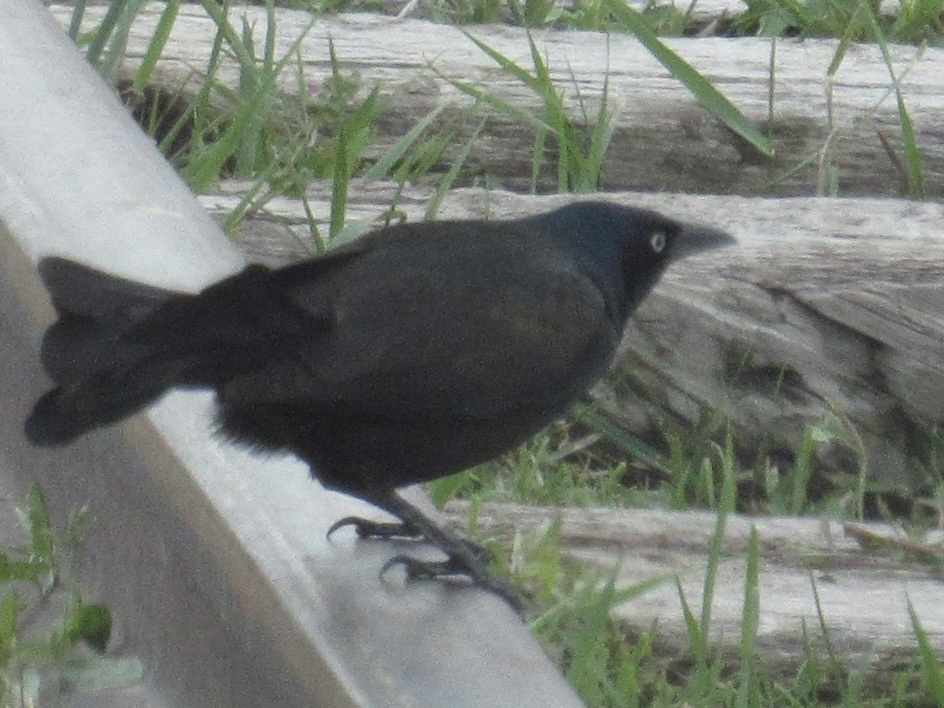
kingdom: Animalia
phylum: Chordata
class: Aves
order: Passeriformes
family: Icteridae
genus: Quiscalus
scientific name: Quiscalus quiscula
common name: Common grackle
